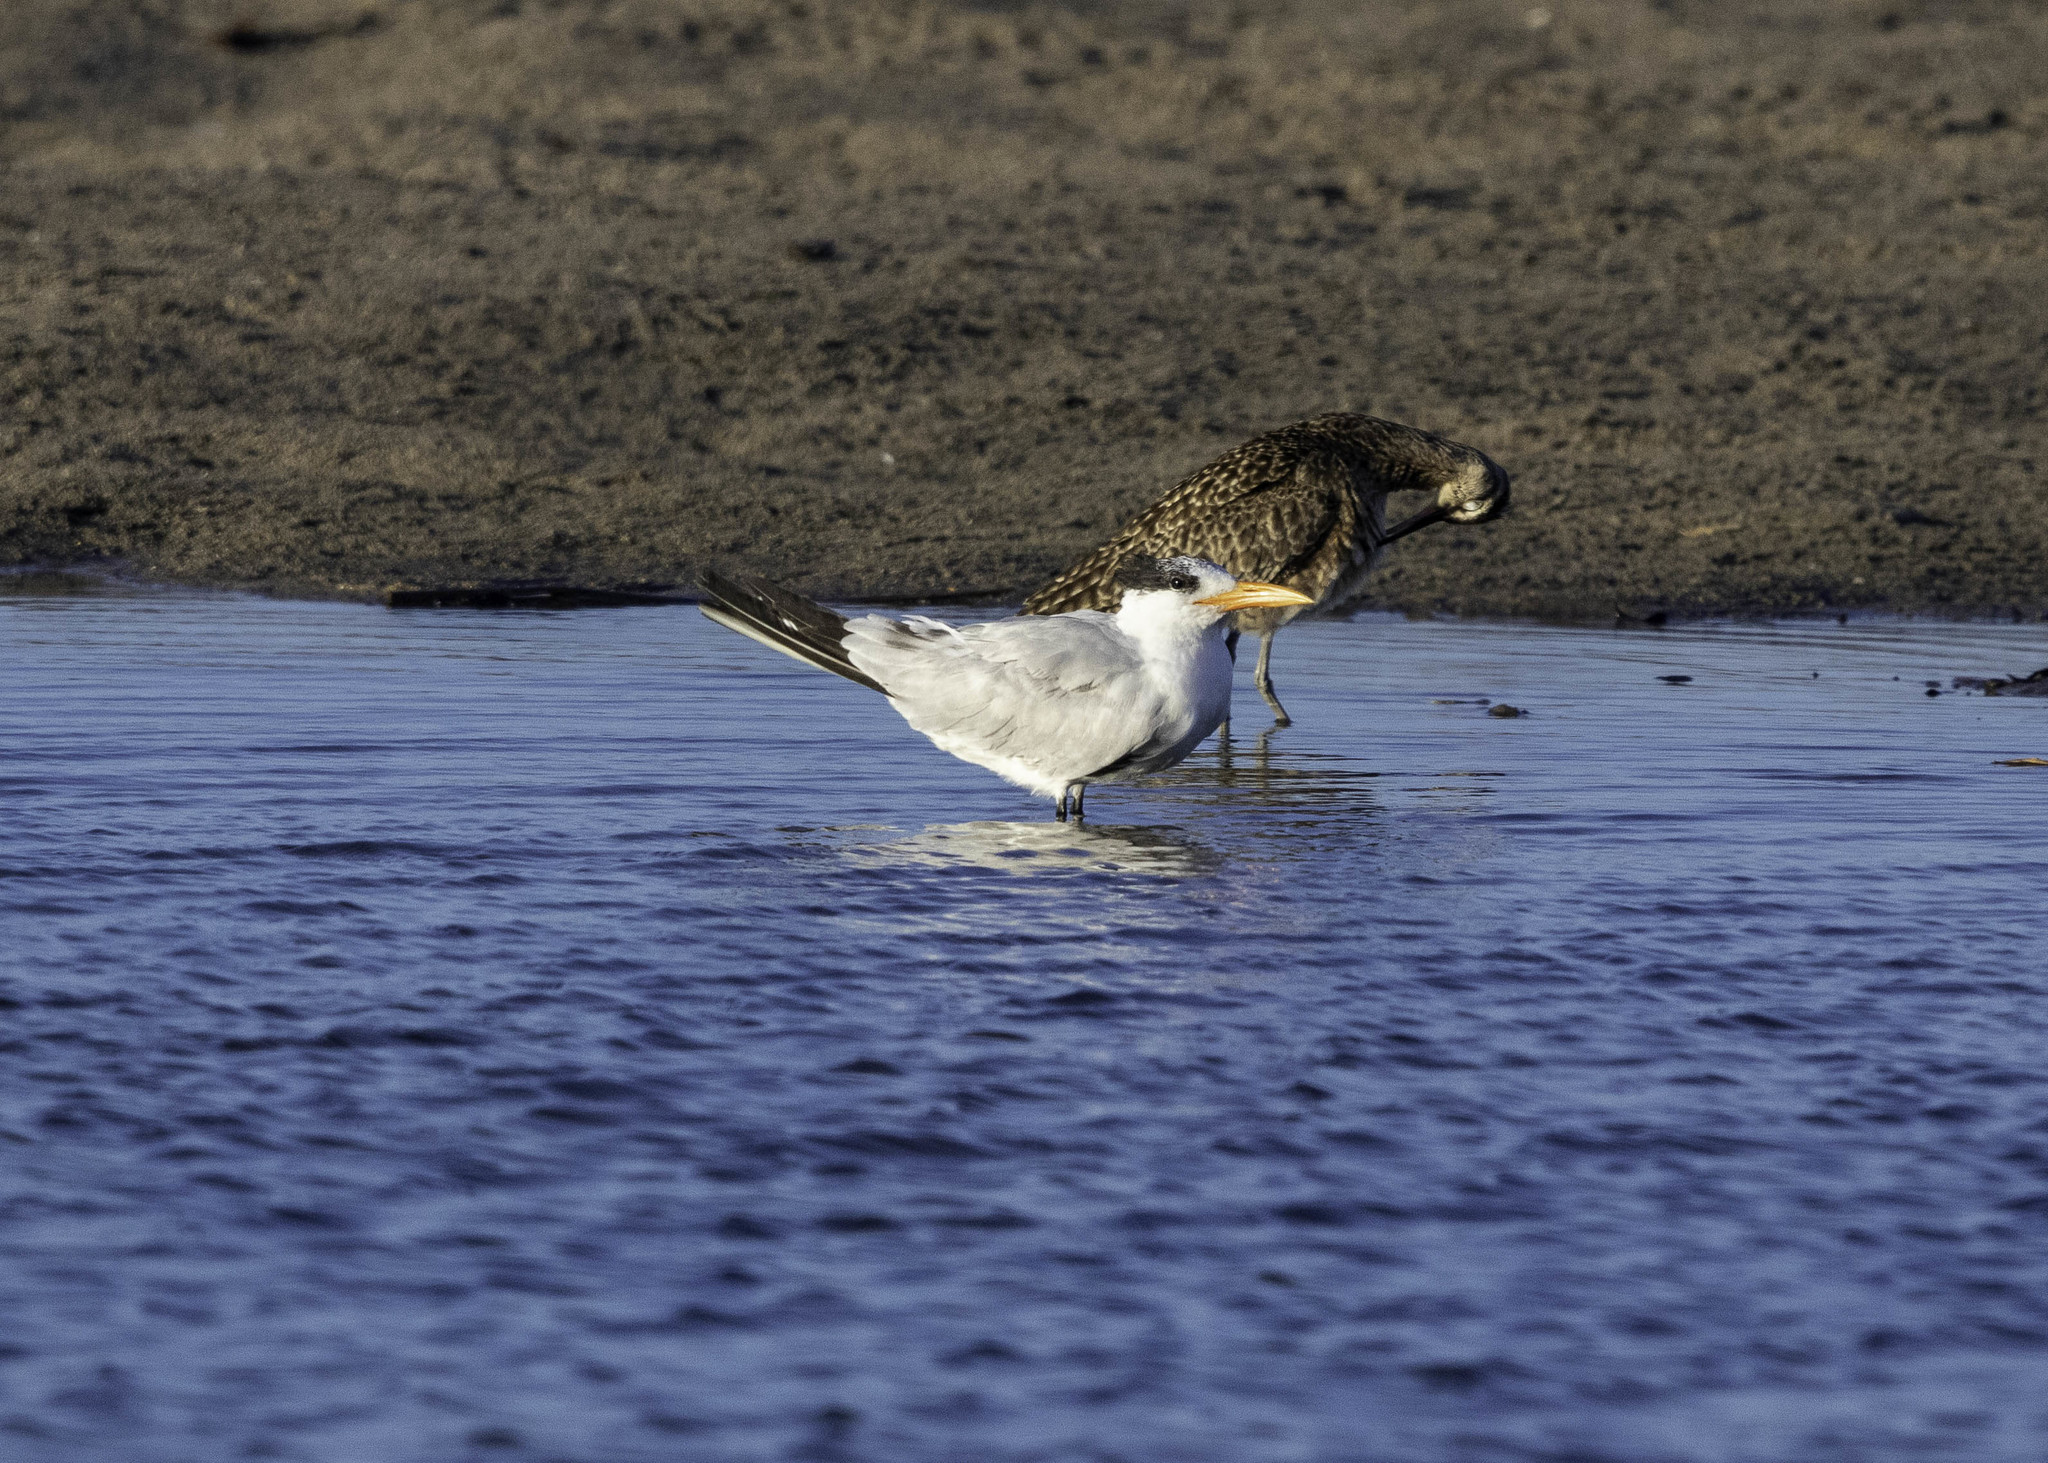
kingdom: Animalia
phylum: Chordata
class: Aves
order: Charadriiformes
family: Laridae
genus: Thalasseus
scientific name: Thalasseus maximus
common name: Royal tern
